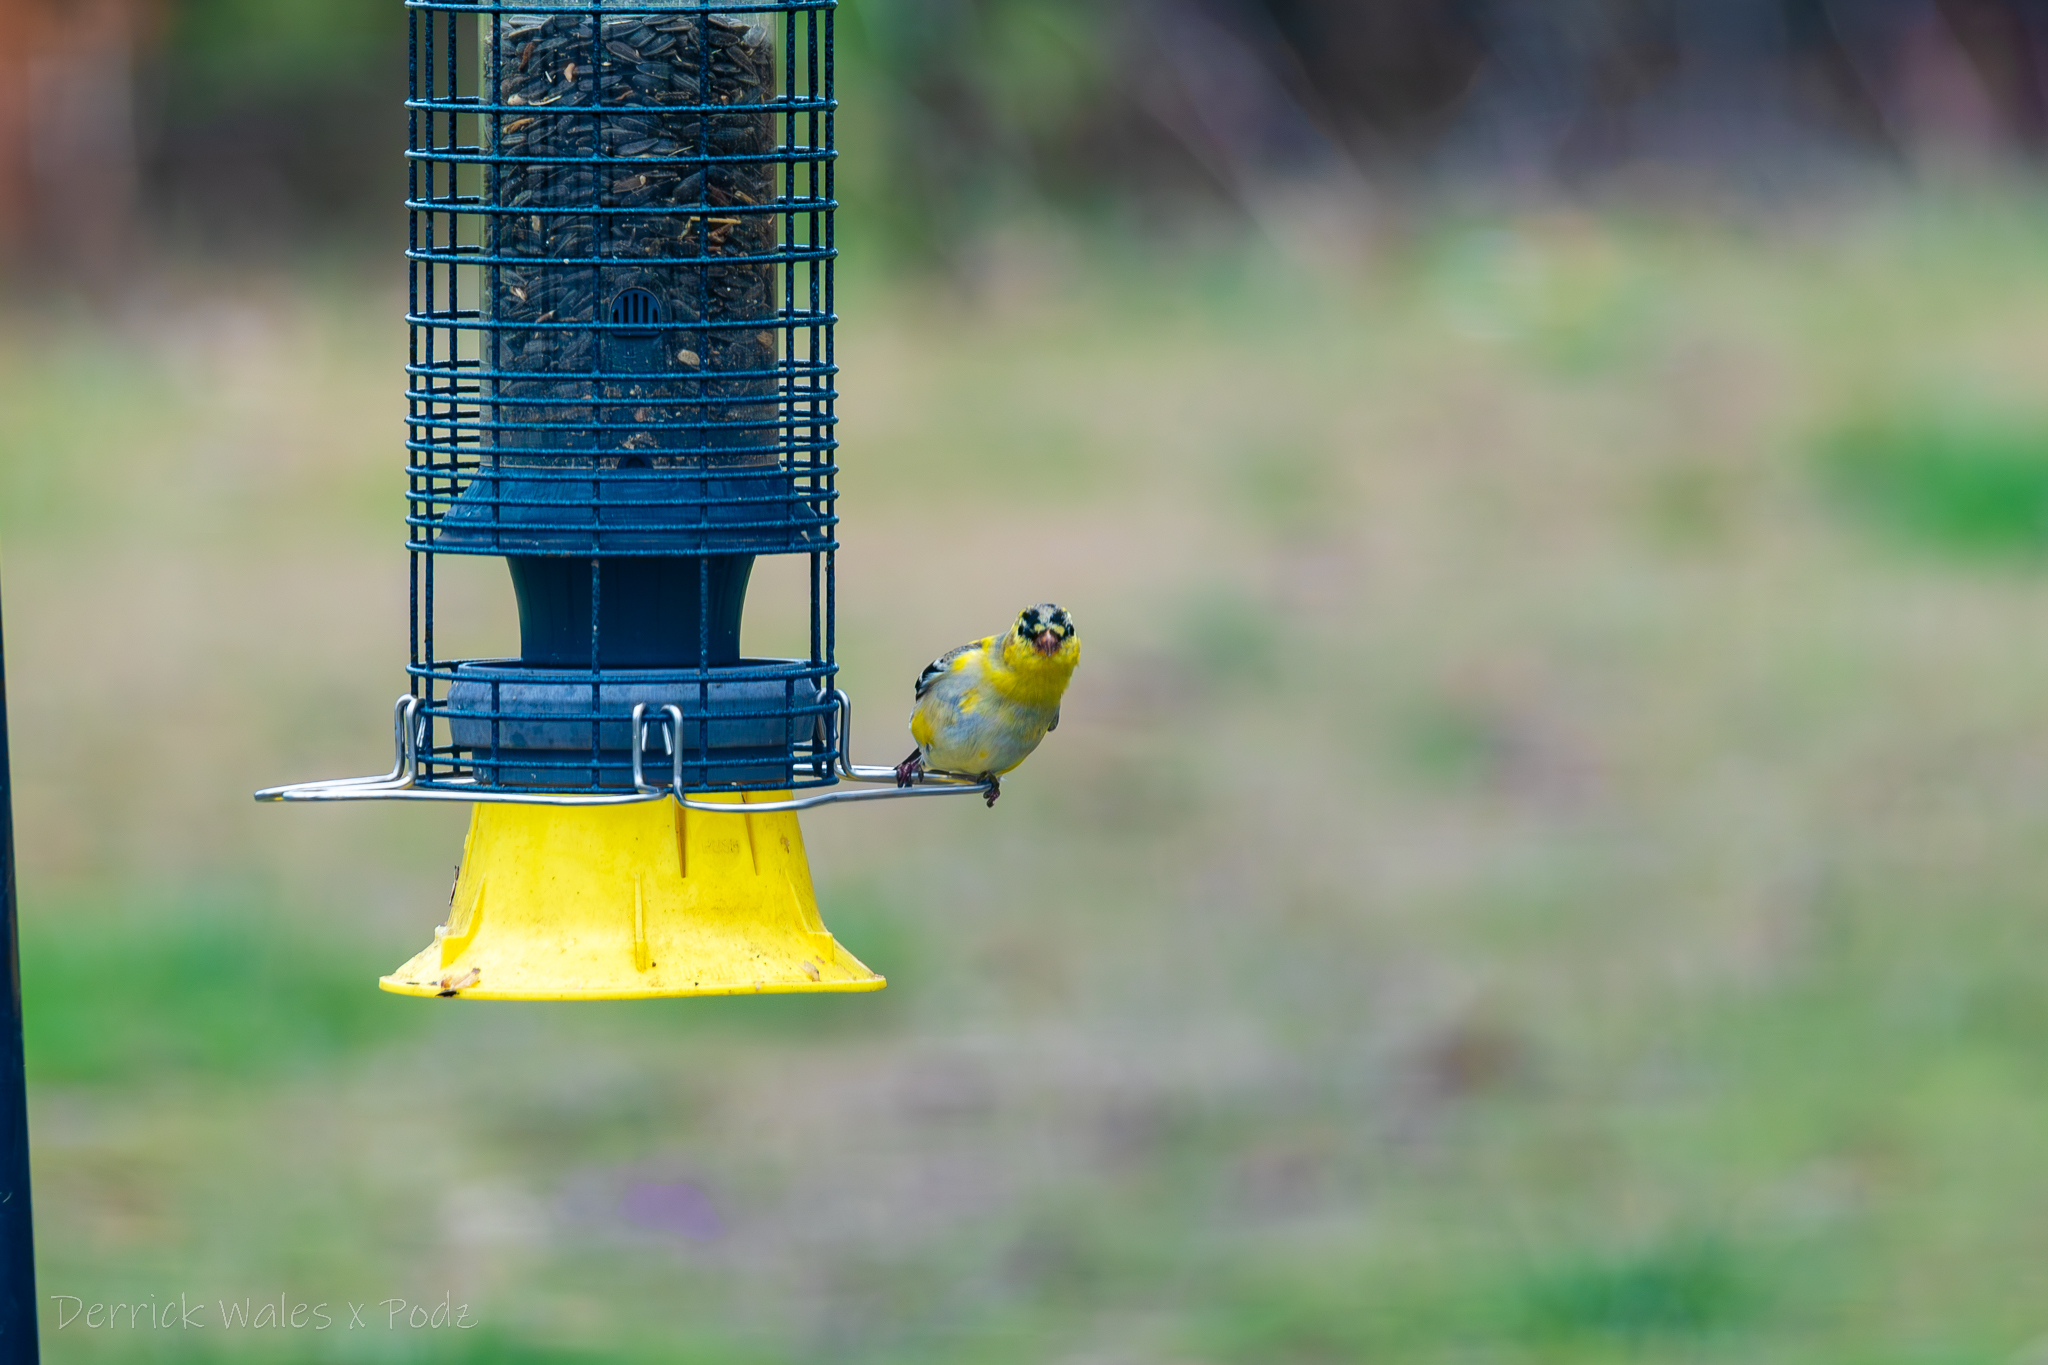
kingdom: Animalia
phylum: Chordata
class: Aves
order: Passeriformes
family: Fringillidae
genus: Spinus
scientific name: Spinus tristis
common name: American goldfinch
